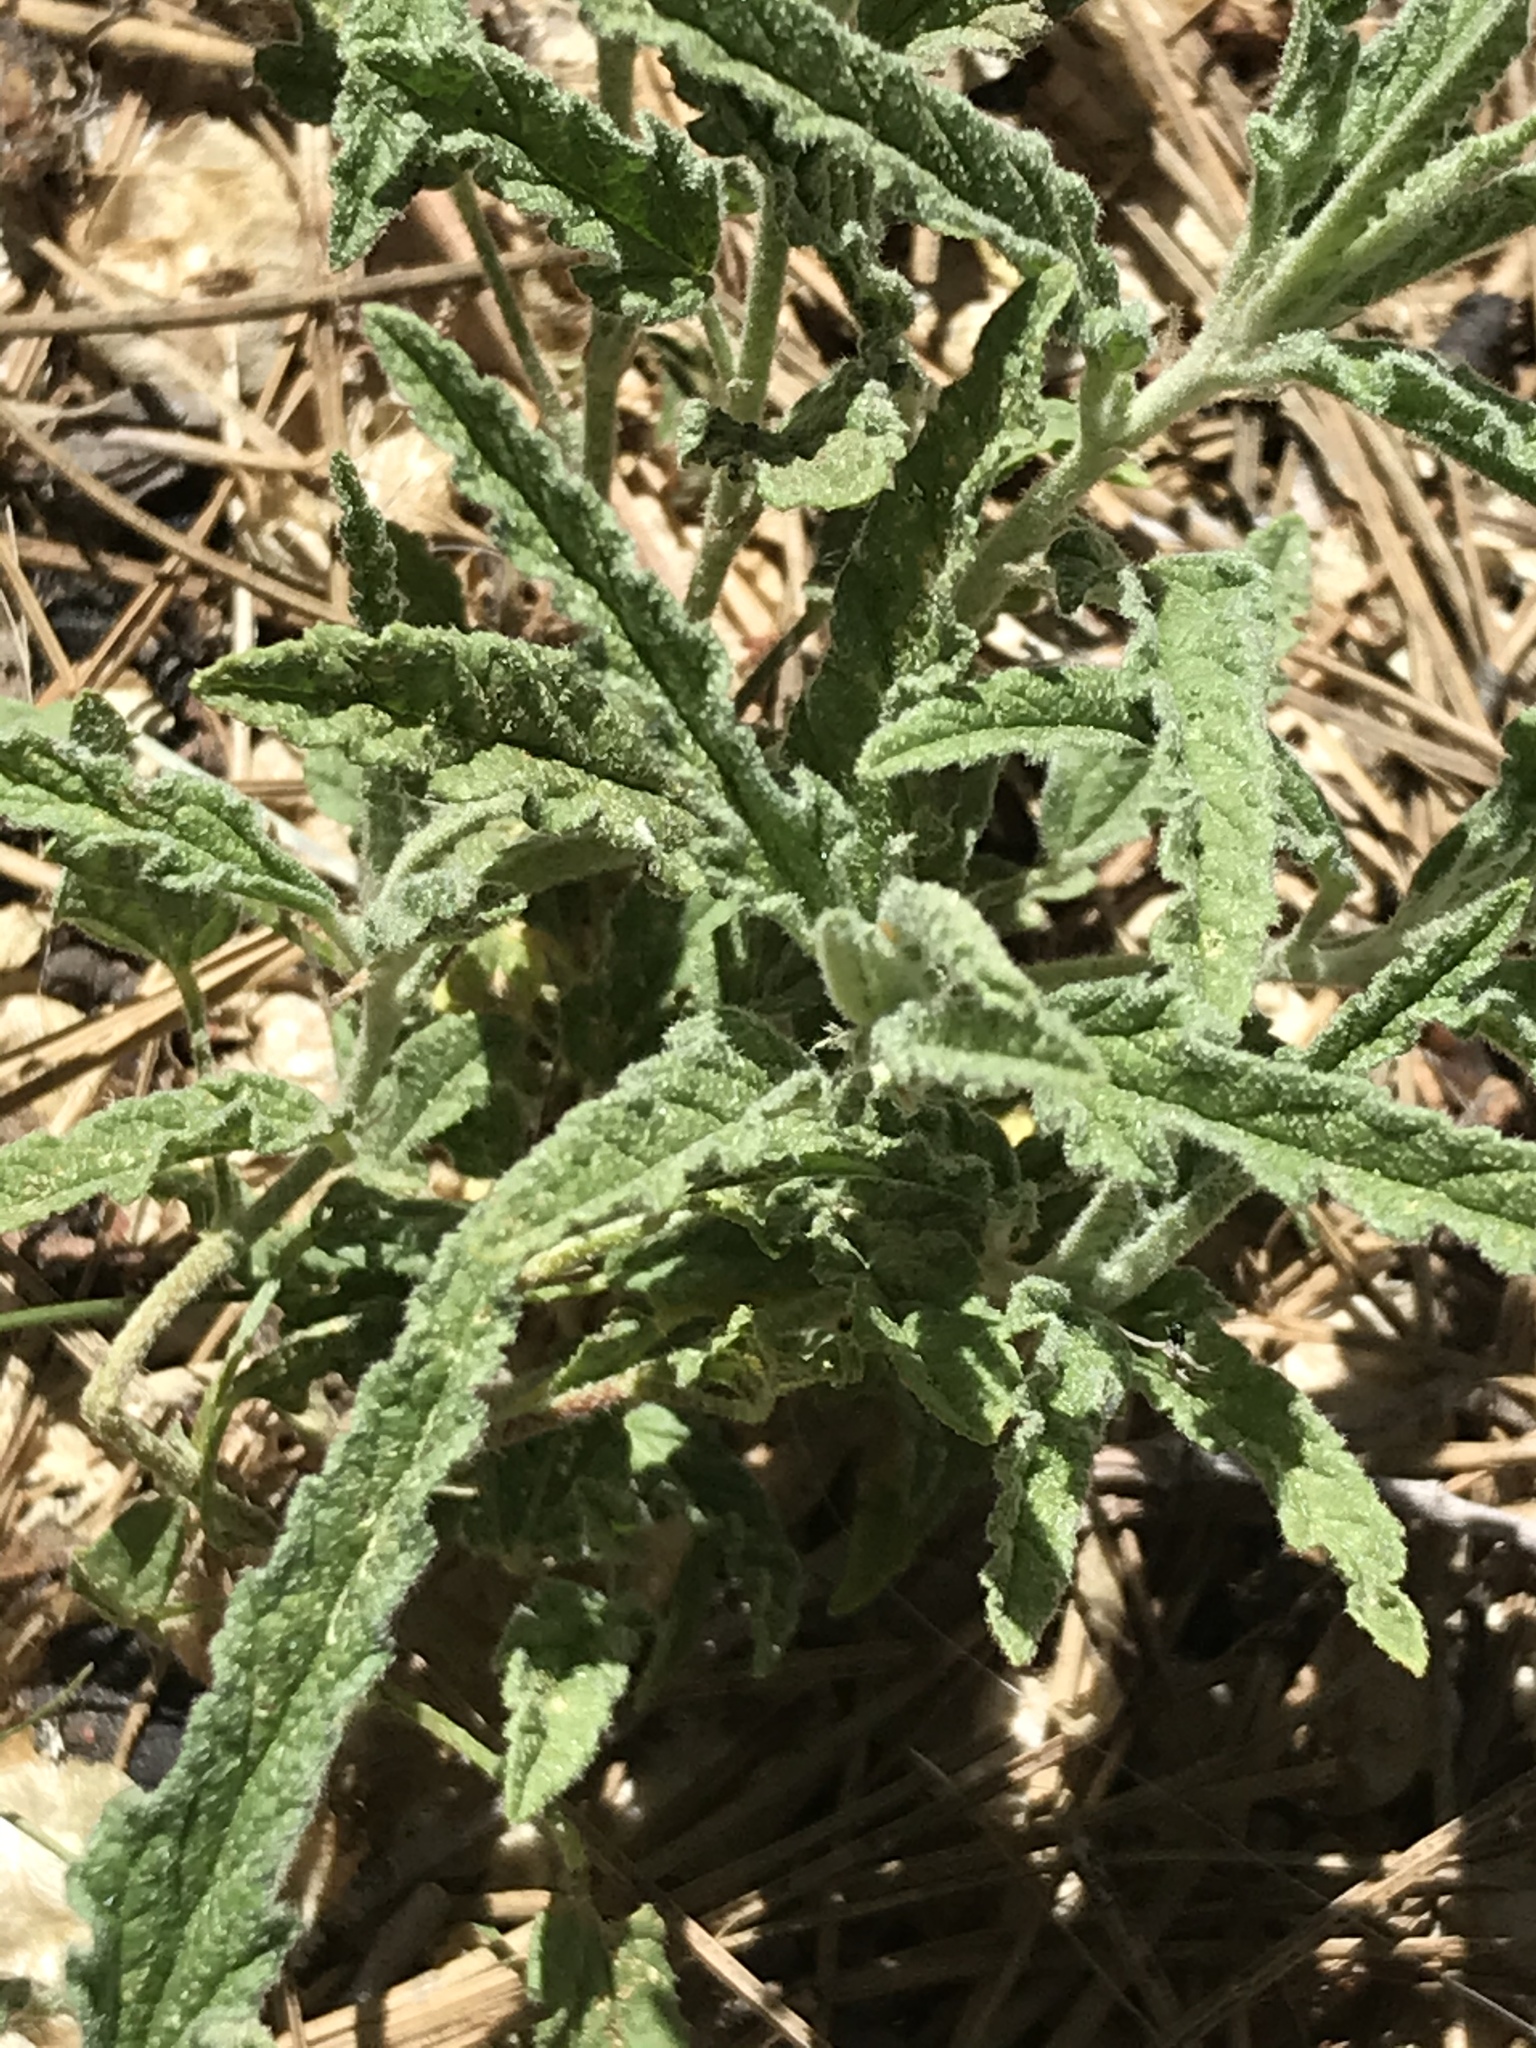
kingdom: Plantae
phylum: Tracheophyta
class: Magnoliopsida
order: Malvales
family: Malvaceae
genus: Sphaeralcea
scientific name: Sphaeralcea angustifolia
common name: Copper globe-mallow
